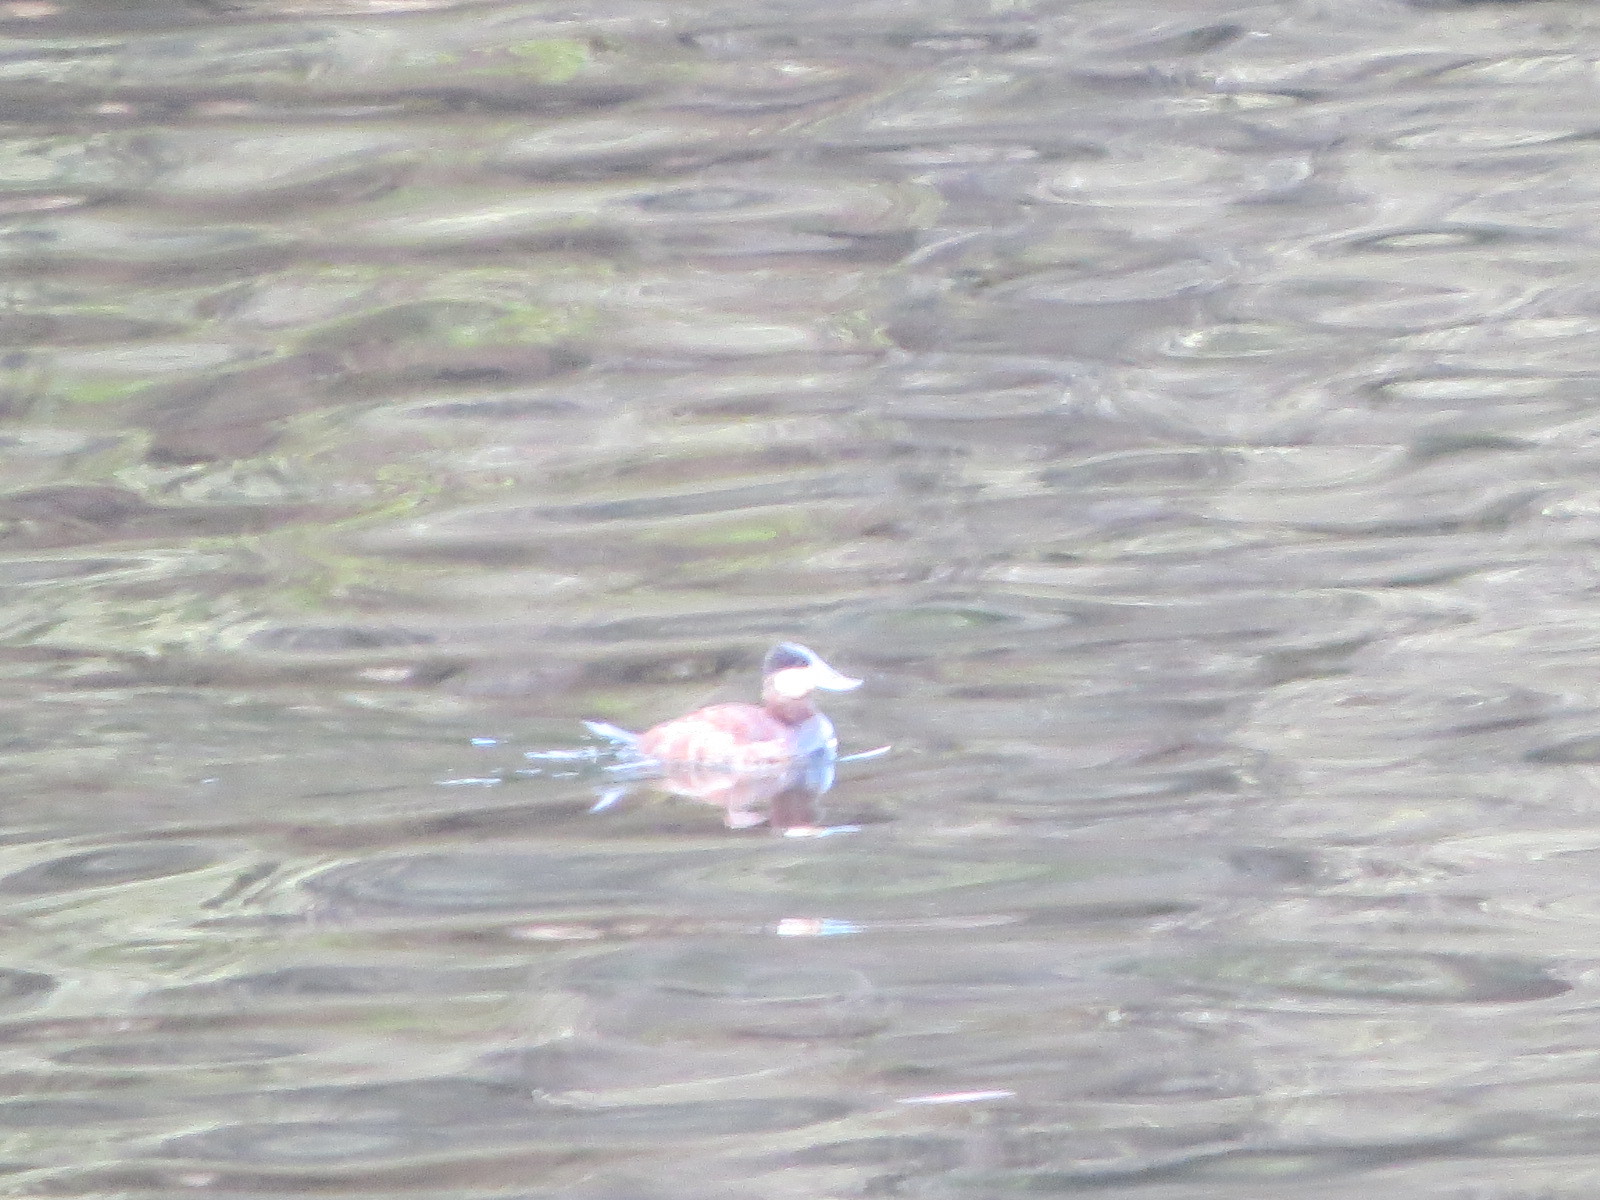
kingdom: Animalia
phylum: Chordata
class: Aves
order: Anseriformes
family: Anatidae
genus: Oxyura
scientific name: Oxyura jamaicensis
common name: Ruddy duck
